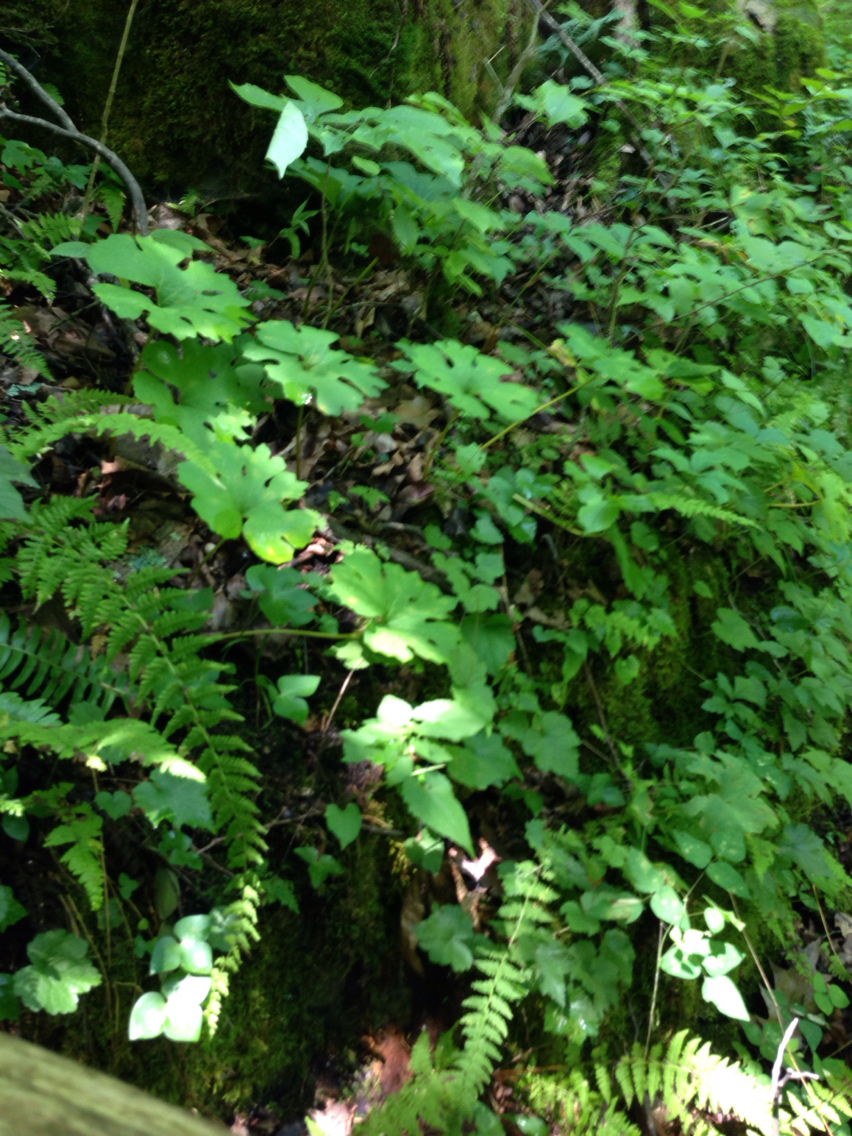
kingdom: Plantae
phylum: Tracheophyta
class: Magnoliopsida
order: Ranunculales
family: Papaveraceae
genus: Sanguinaria
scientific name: Sanguinaria canadensis
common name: Bloodroot
